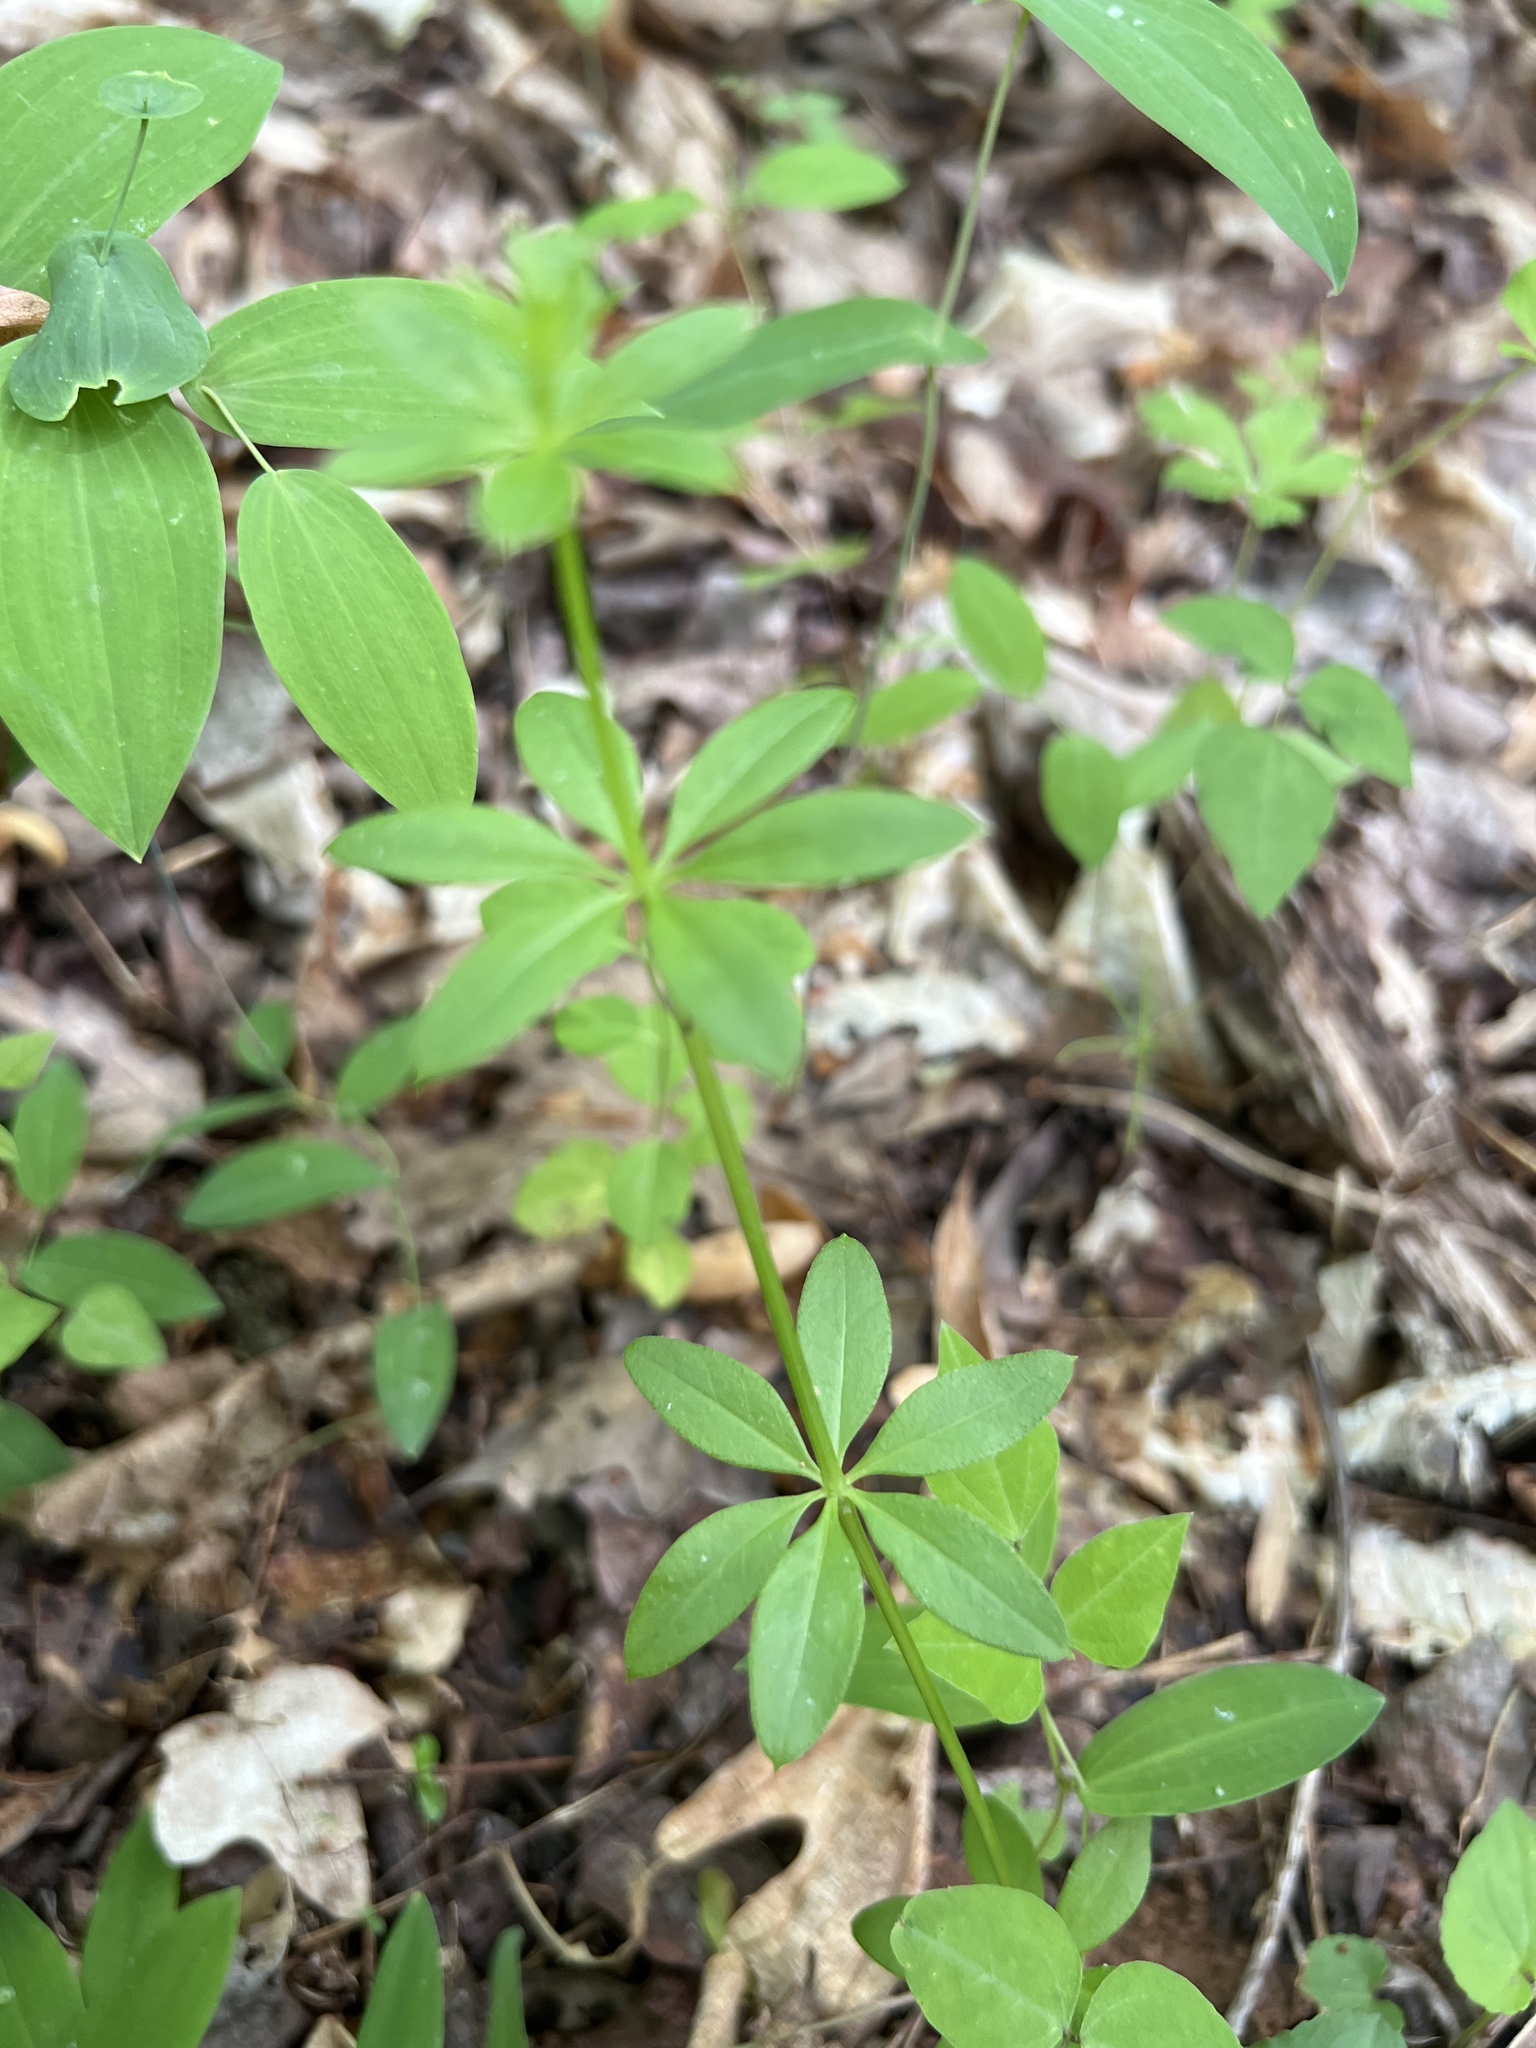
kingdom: Plantae
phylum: Tracheophyta
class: Magnoliopsida
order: Gentianales
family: Rubiaceae
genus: Galium
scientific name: Galium triflorum
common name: Fragrant bedstraw
